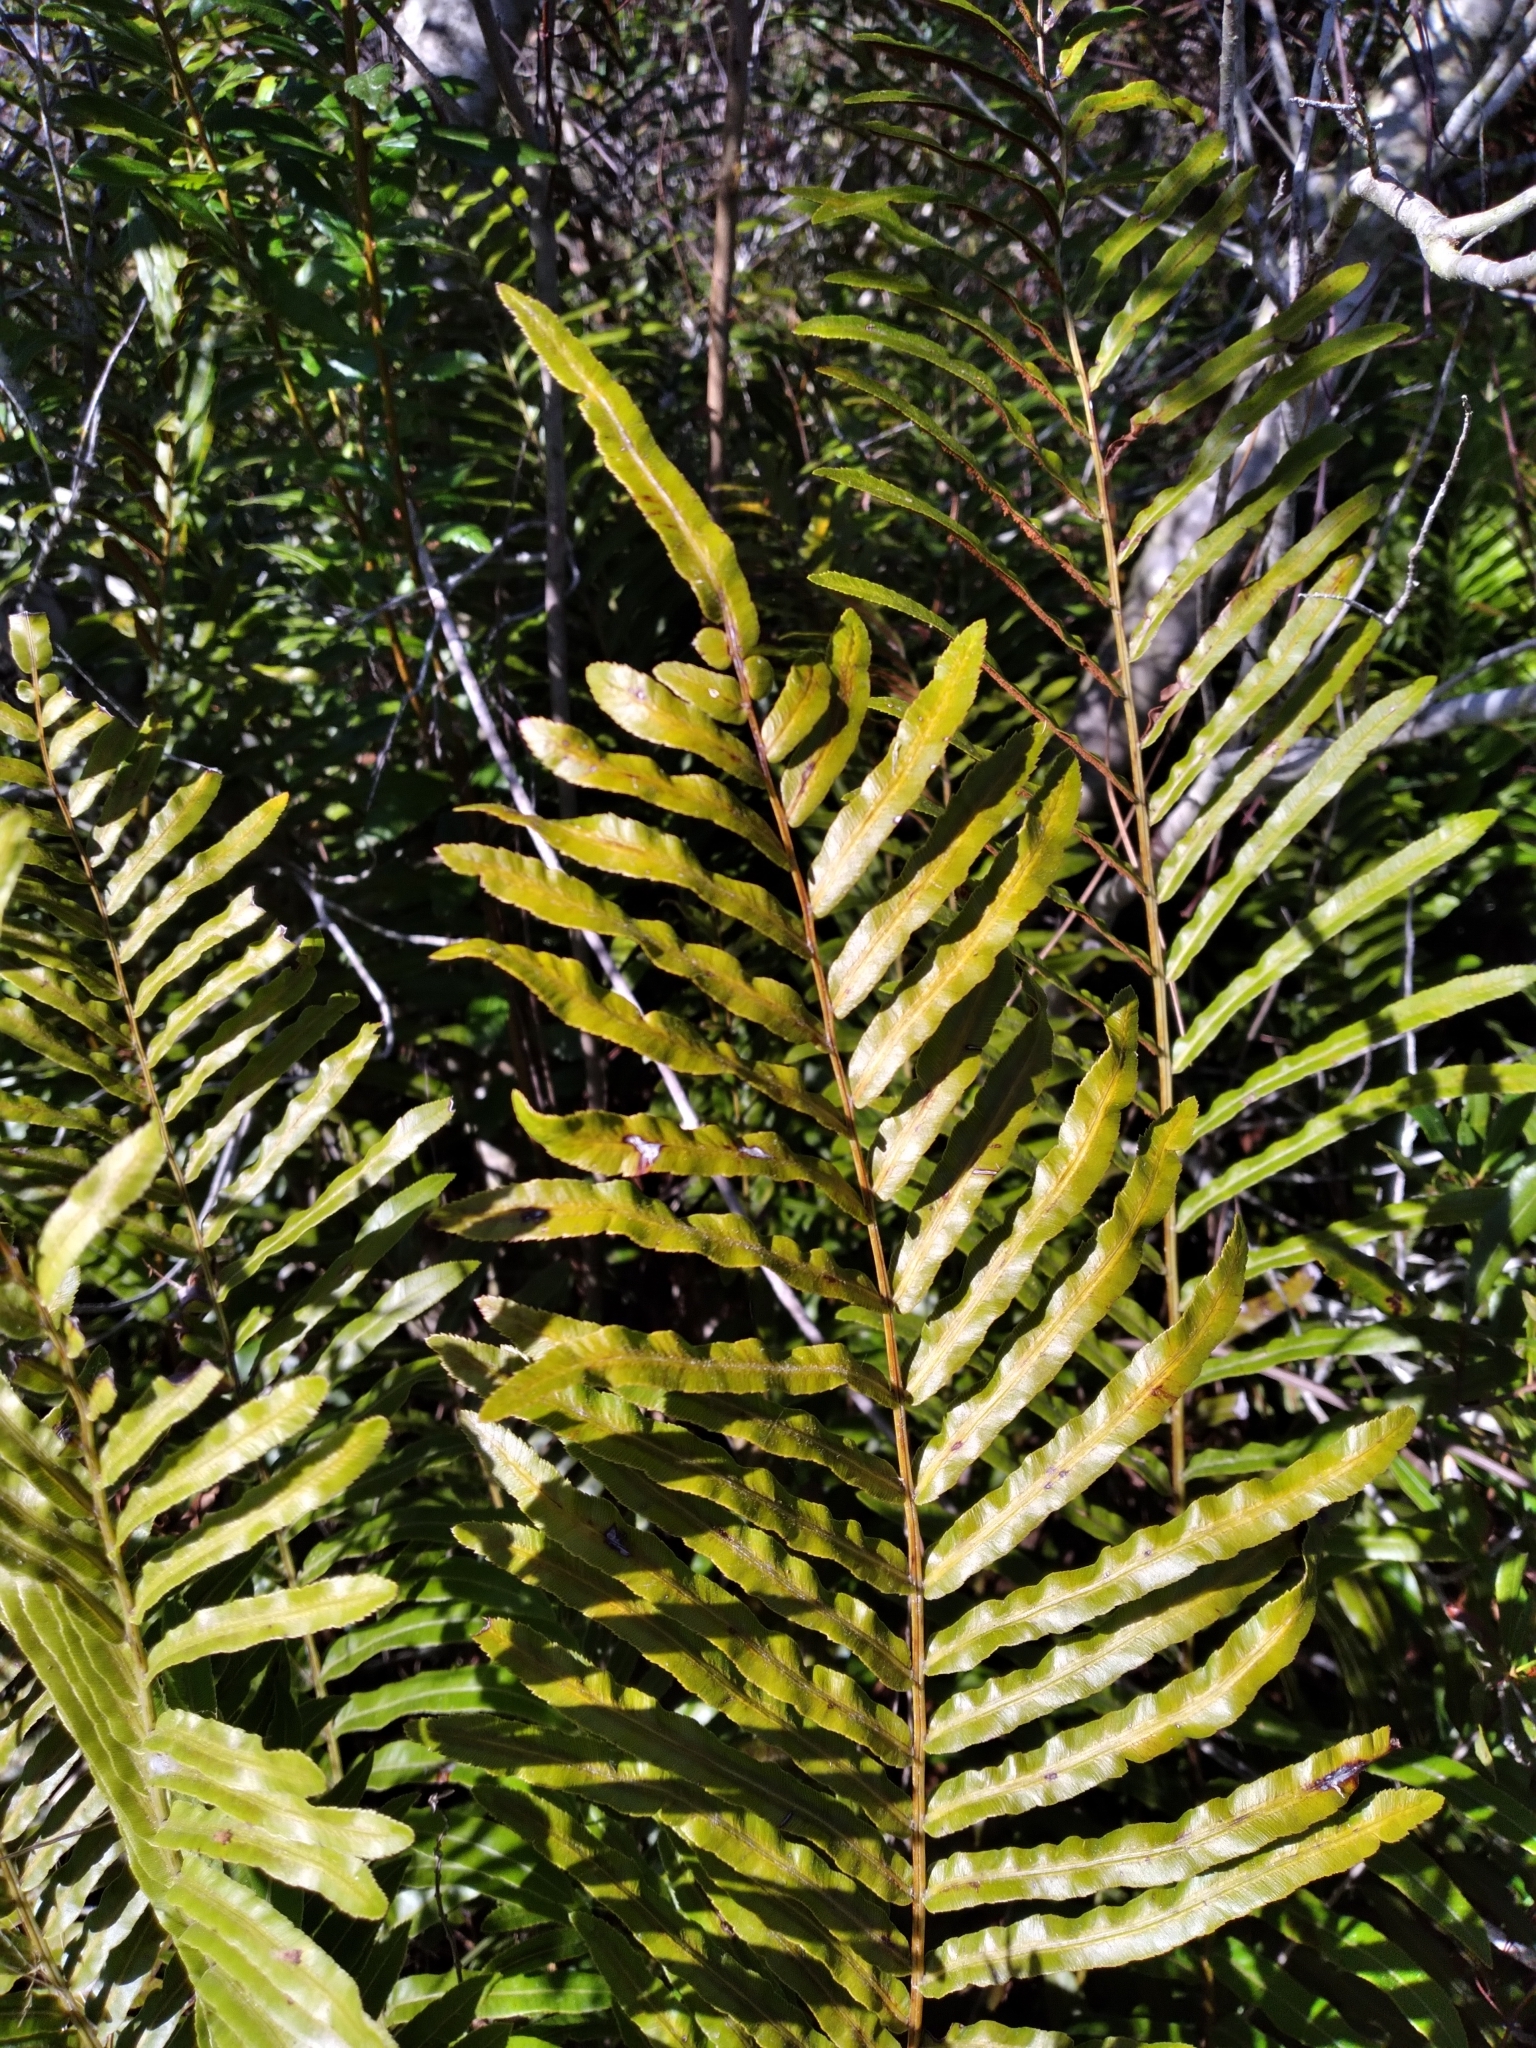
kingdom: Plantae
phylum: Tracheophyta
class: Polypodiopsida
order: Polypodiales
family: Blechnaceae
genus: Telmatoblechnum
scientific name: Telmatoblechnum serrulatum
